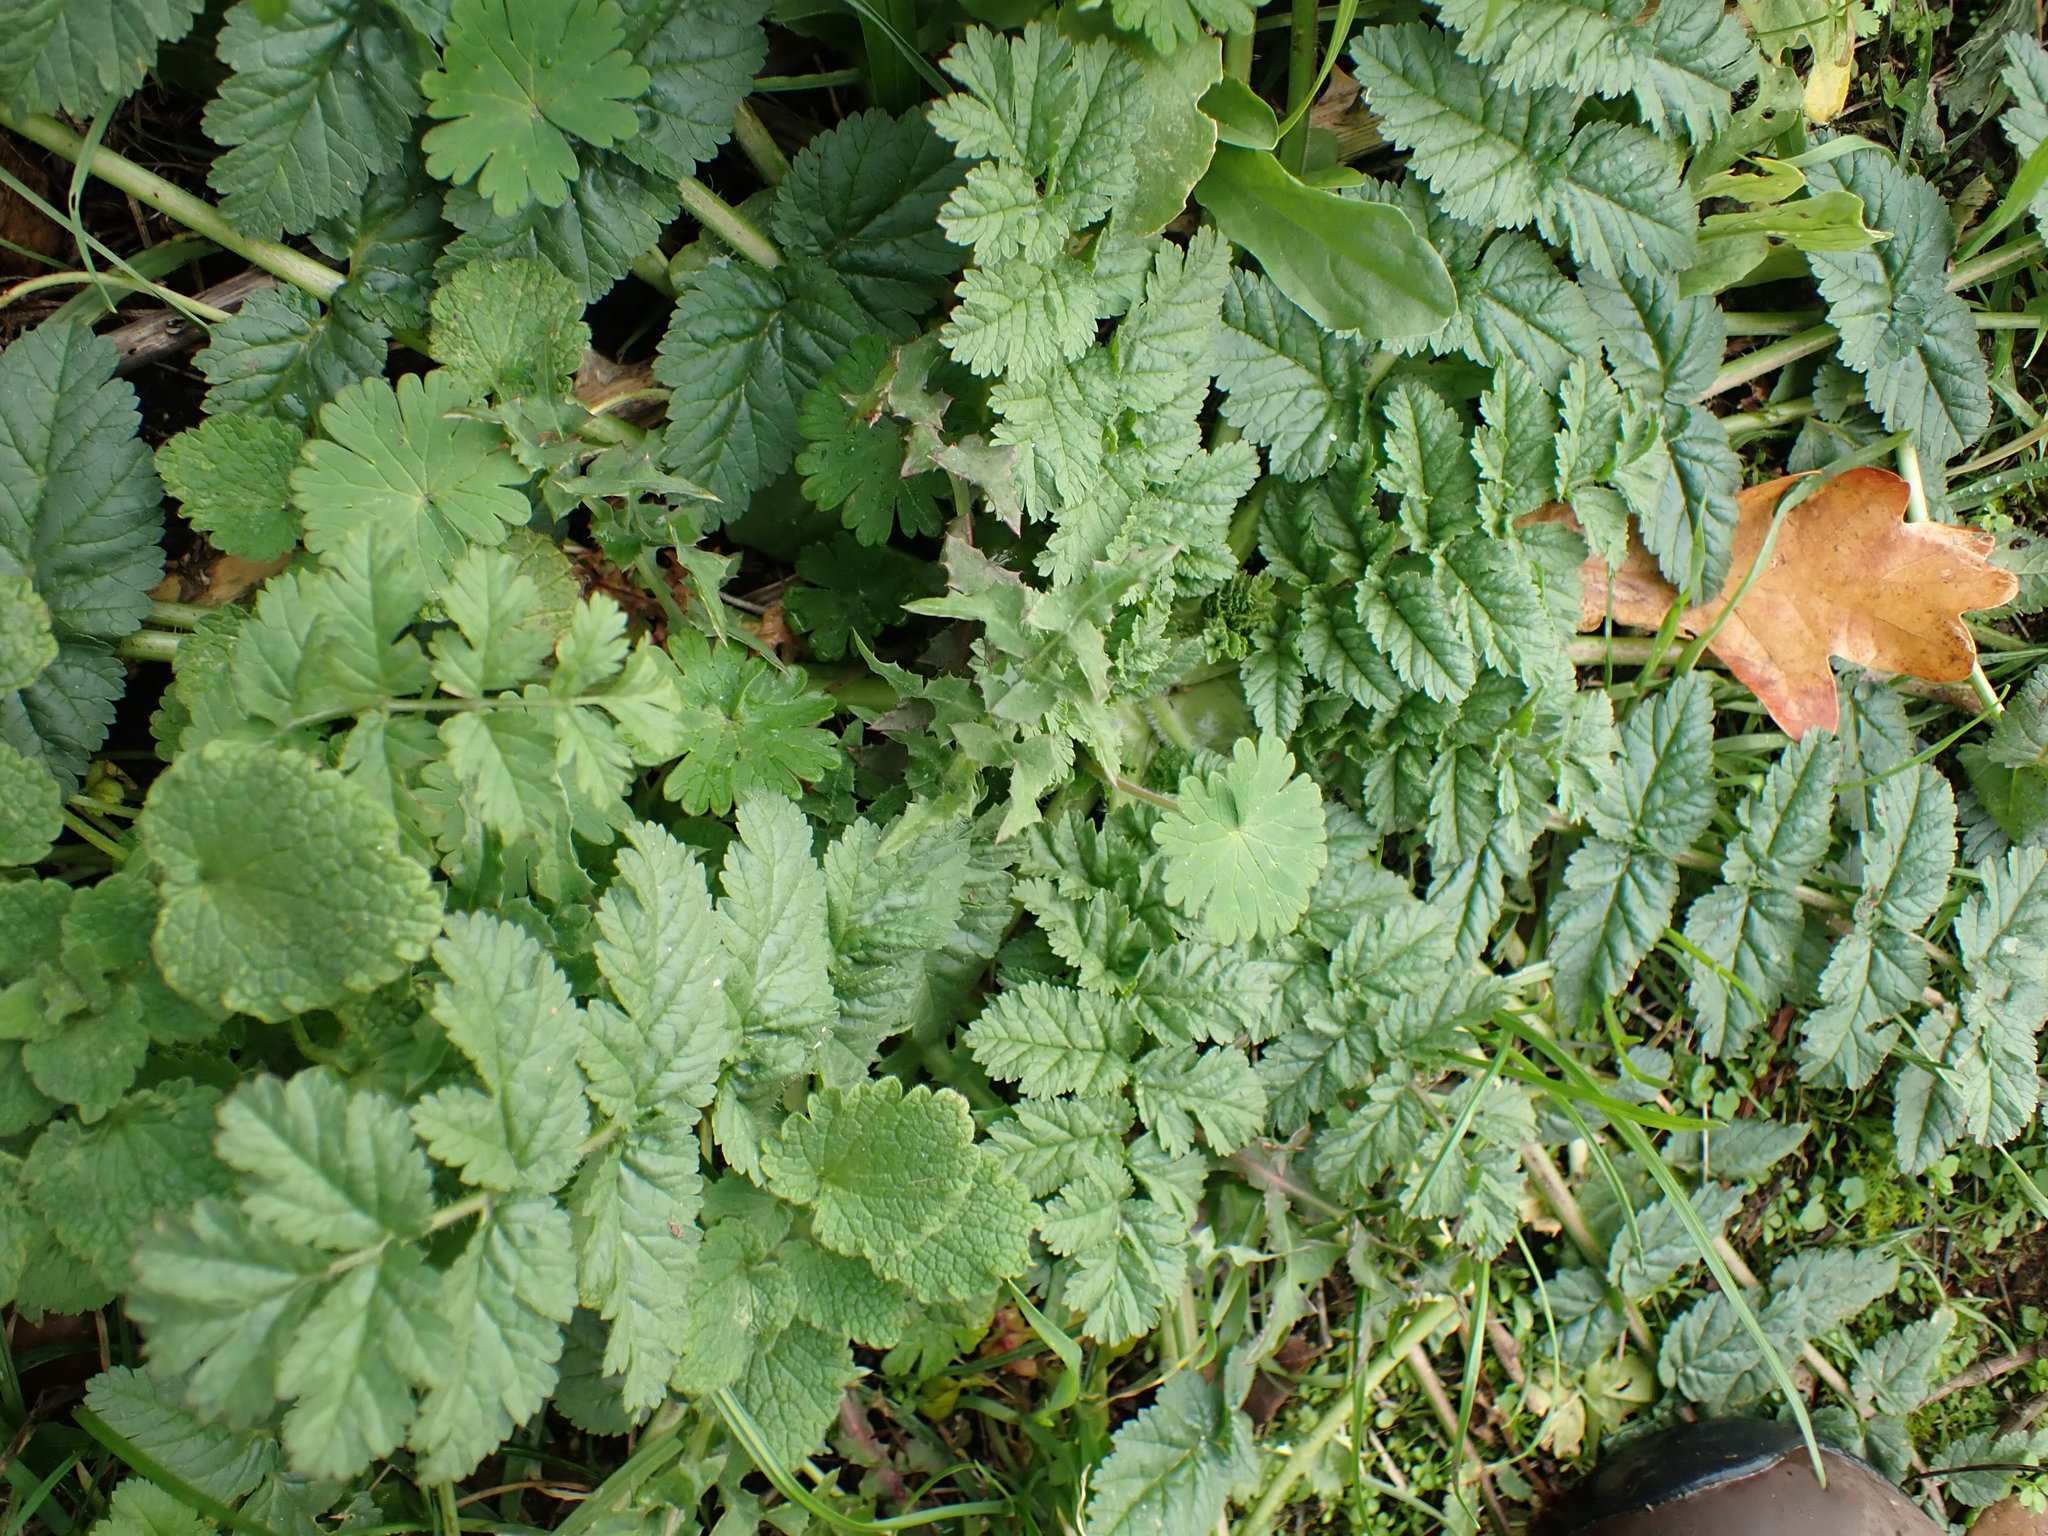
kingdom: Plantae
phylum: Tracheophyta
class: Magnoliopsida
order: Geraniales
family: Geraniaceae
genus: Erodium
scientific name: Erodium moschatum
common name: Musk stork's-bill
